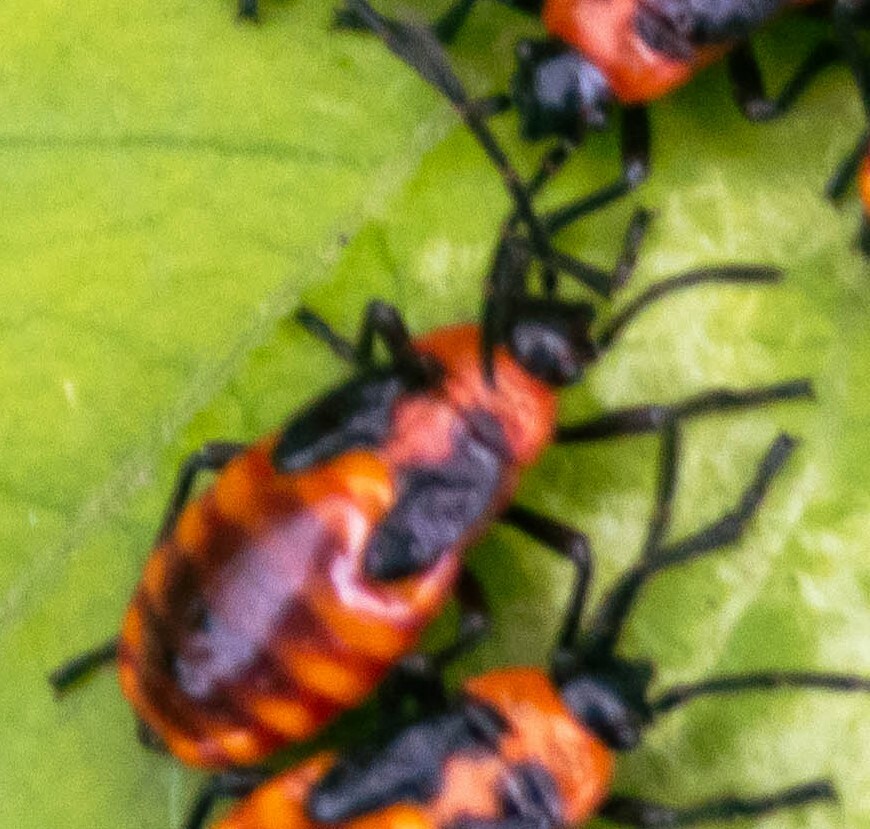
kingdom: Animalia
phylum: Arthropoda
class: Insecta
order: Hemiptera
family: Lygaeidae
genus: Tropidothorax
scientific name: Tropidothorax leucopterus
